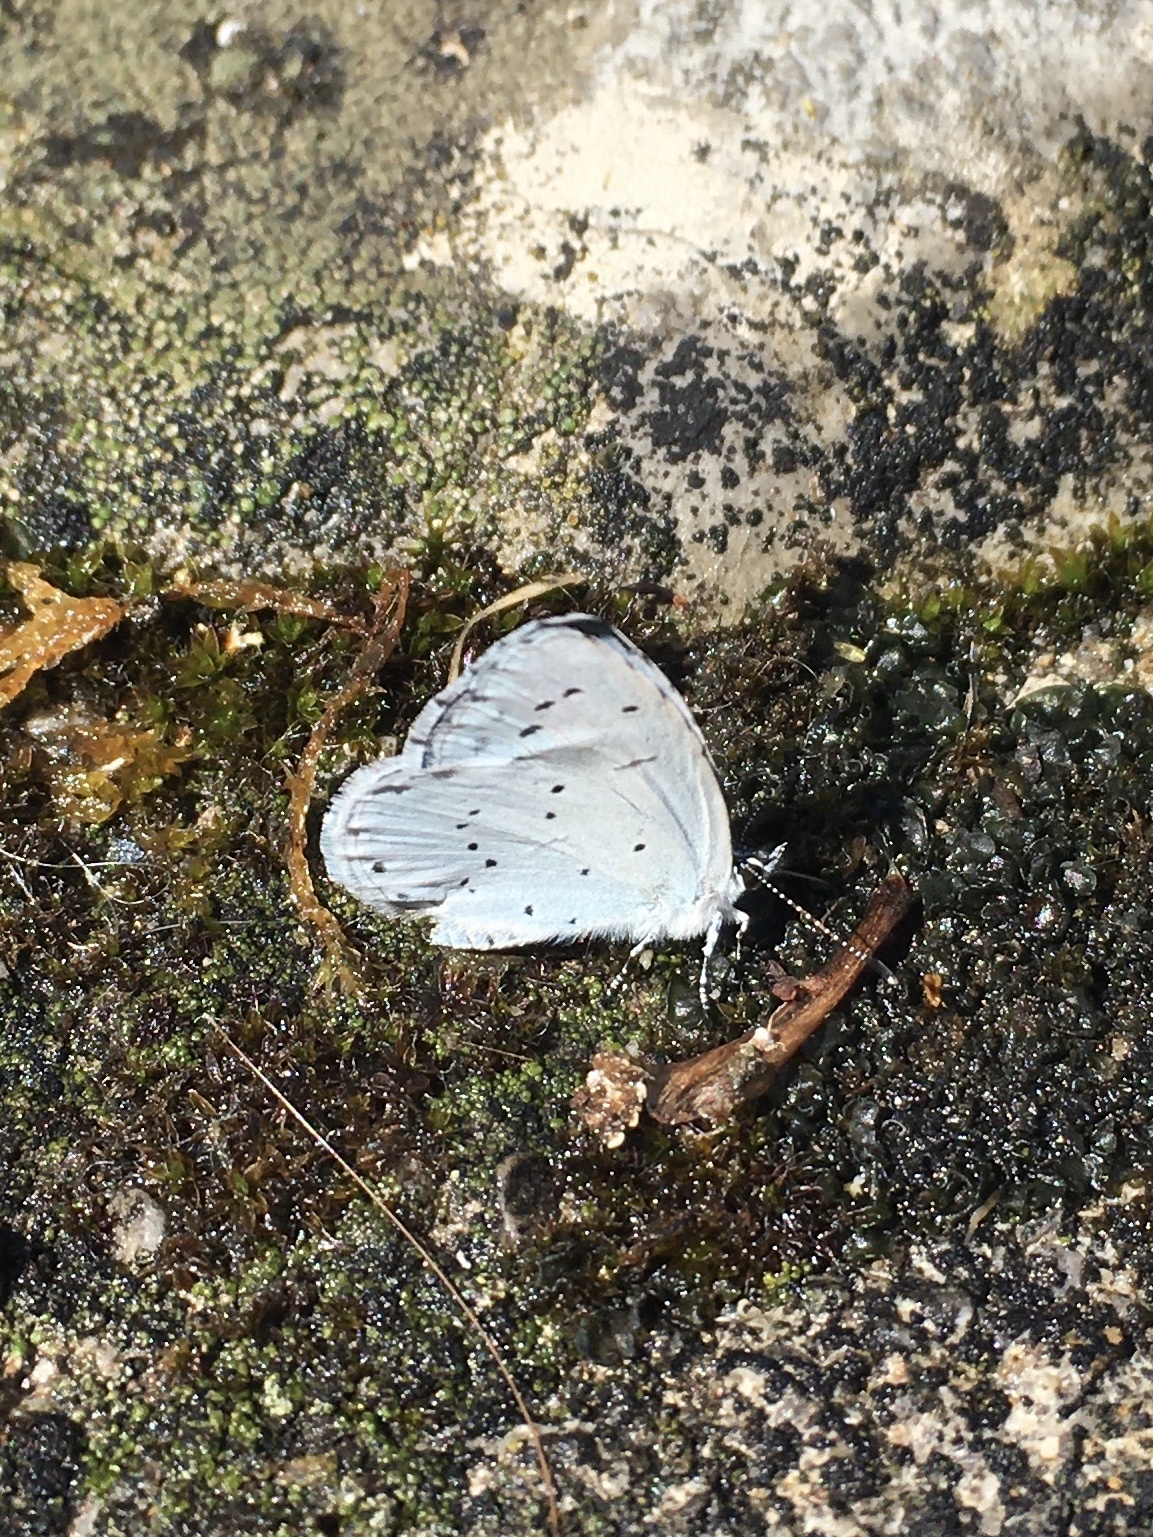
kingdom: Animalia
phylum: Arthropoda
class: Insecta
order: Lepidoptera
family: Lycaenidae
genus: Celastrina
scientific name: Celastrina argiolus
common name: Holly blue
